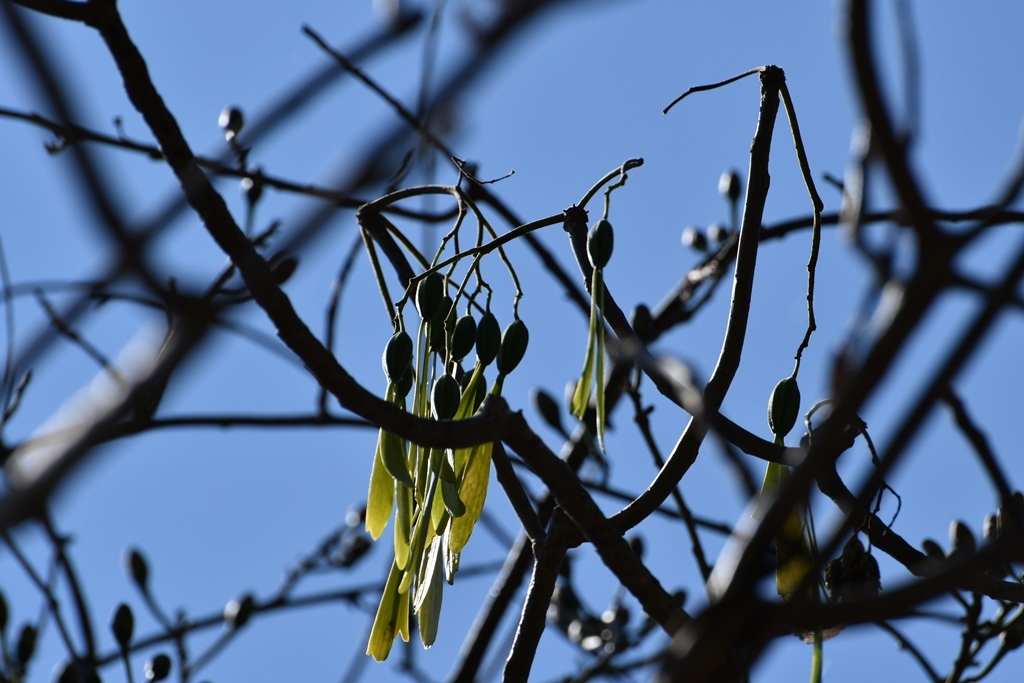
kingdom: Plantae
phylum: Tracheophyta
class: Magnoliopsida
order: Laurales
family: Hernandiaceae
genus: Gyrocarpus
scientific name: Gyrocarpus mocinoi
